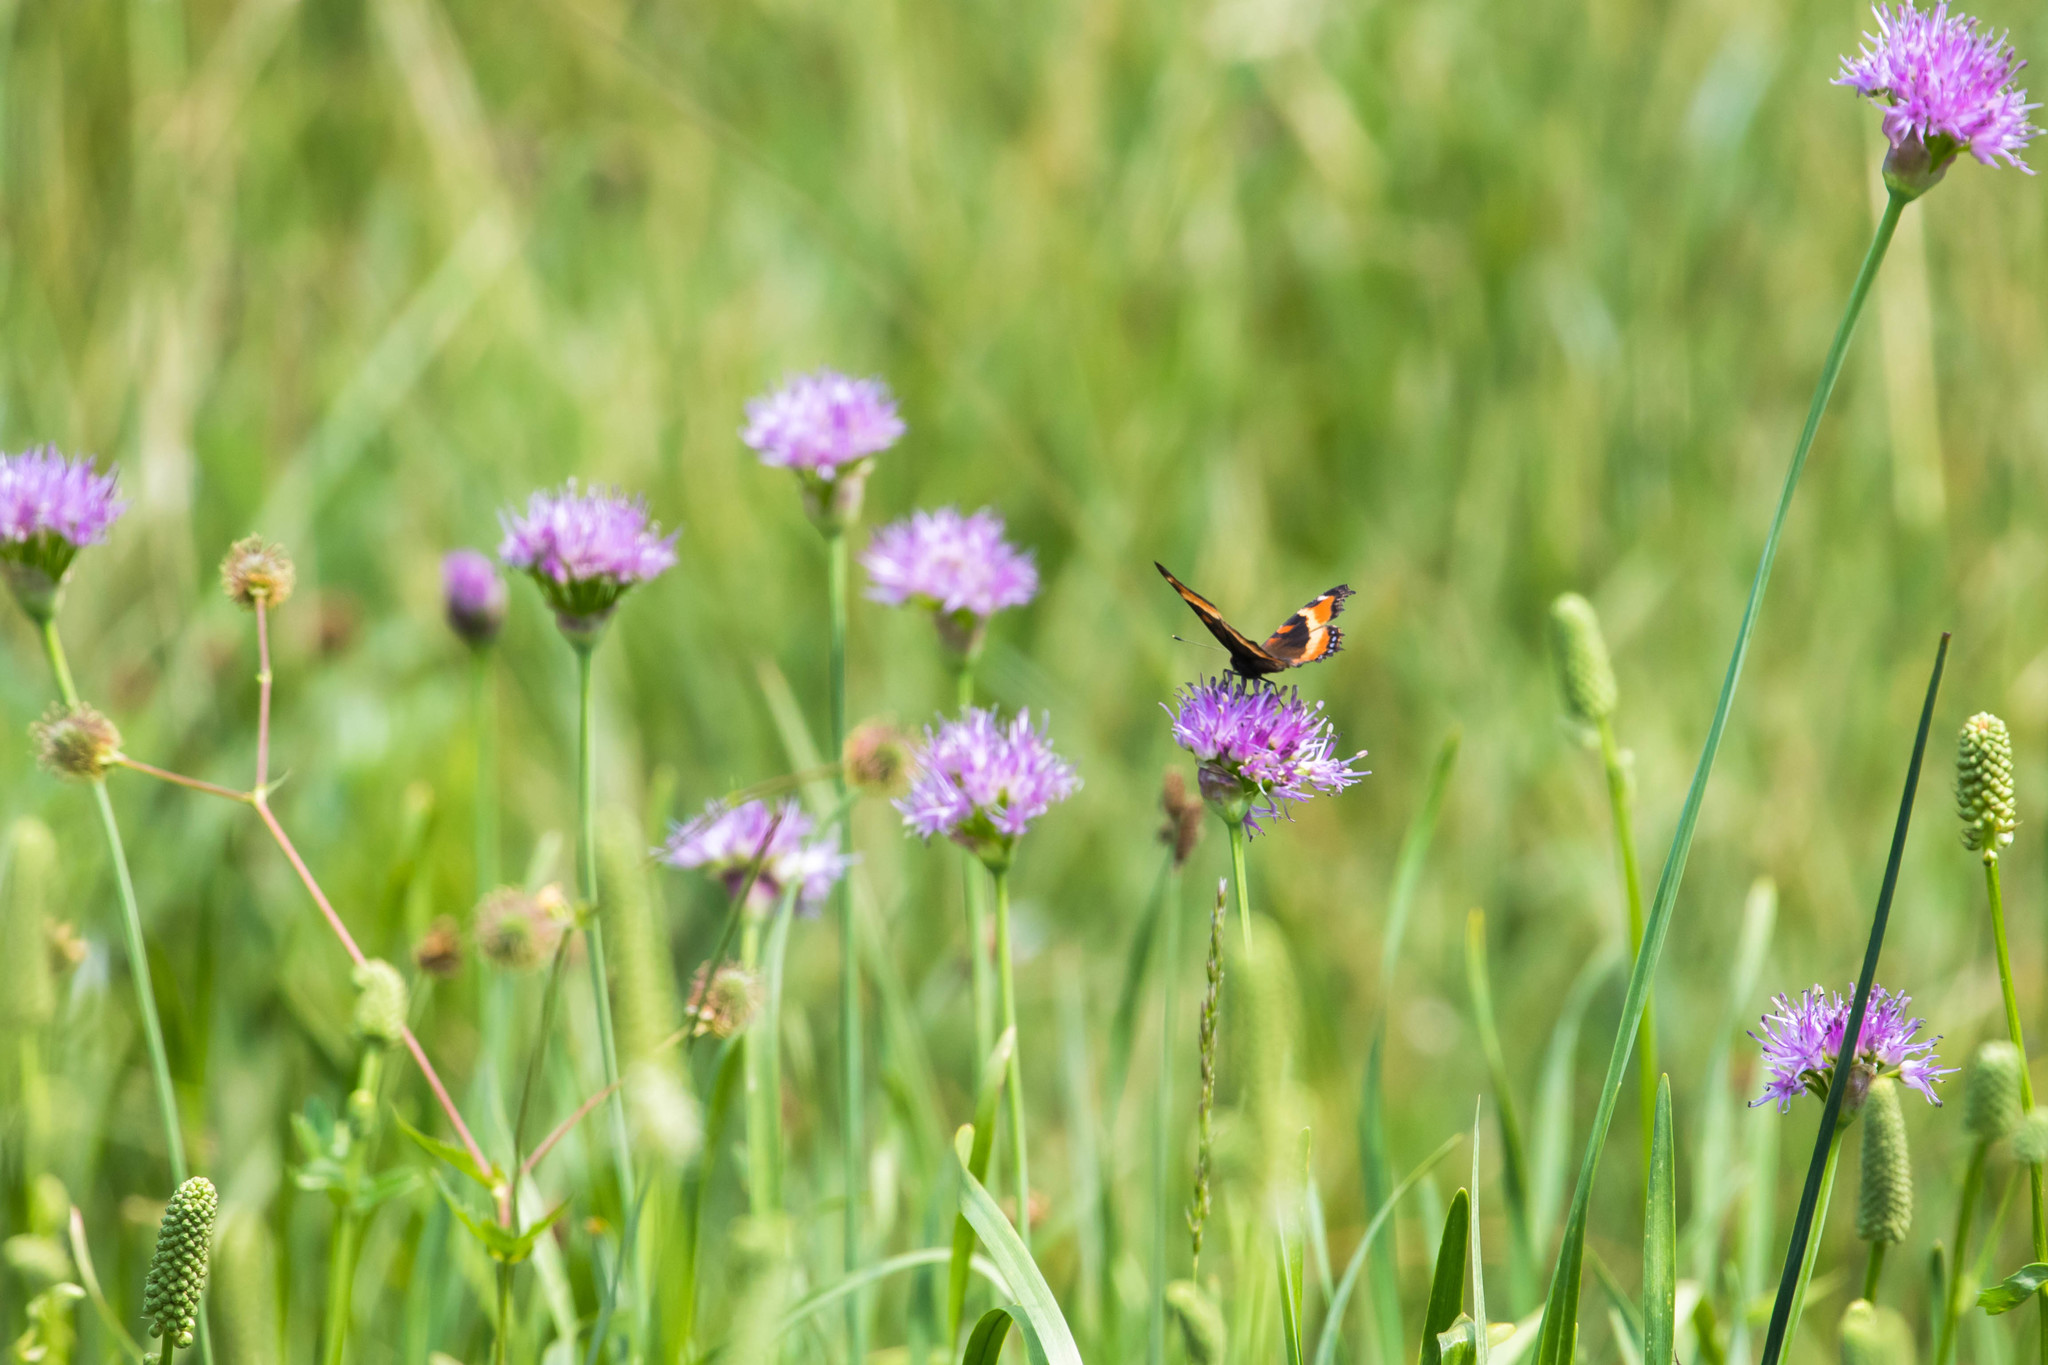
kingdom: Animalia
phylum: Arthropoda
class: Insecta
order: Lepidoptera
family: Nymphalidae
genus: Aglais
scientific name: Aglais milberti
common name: Milbert's tortoiseshell
